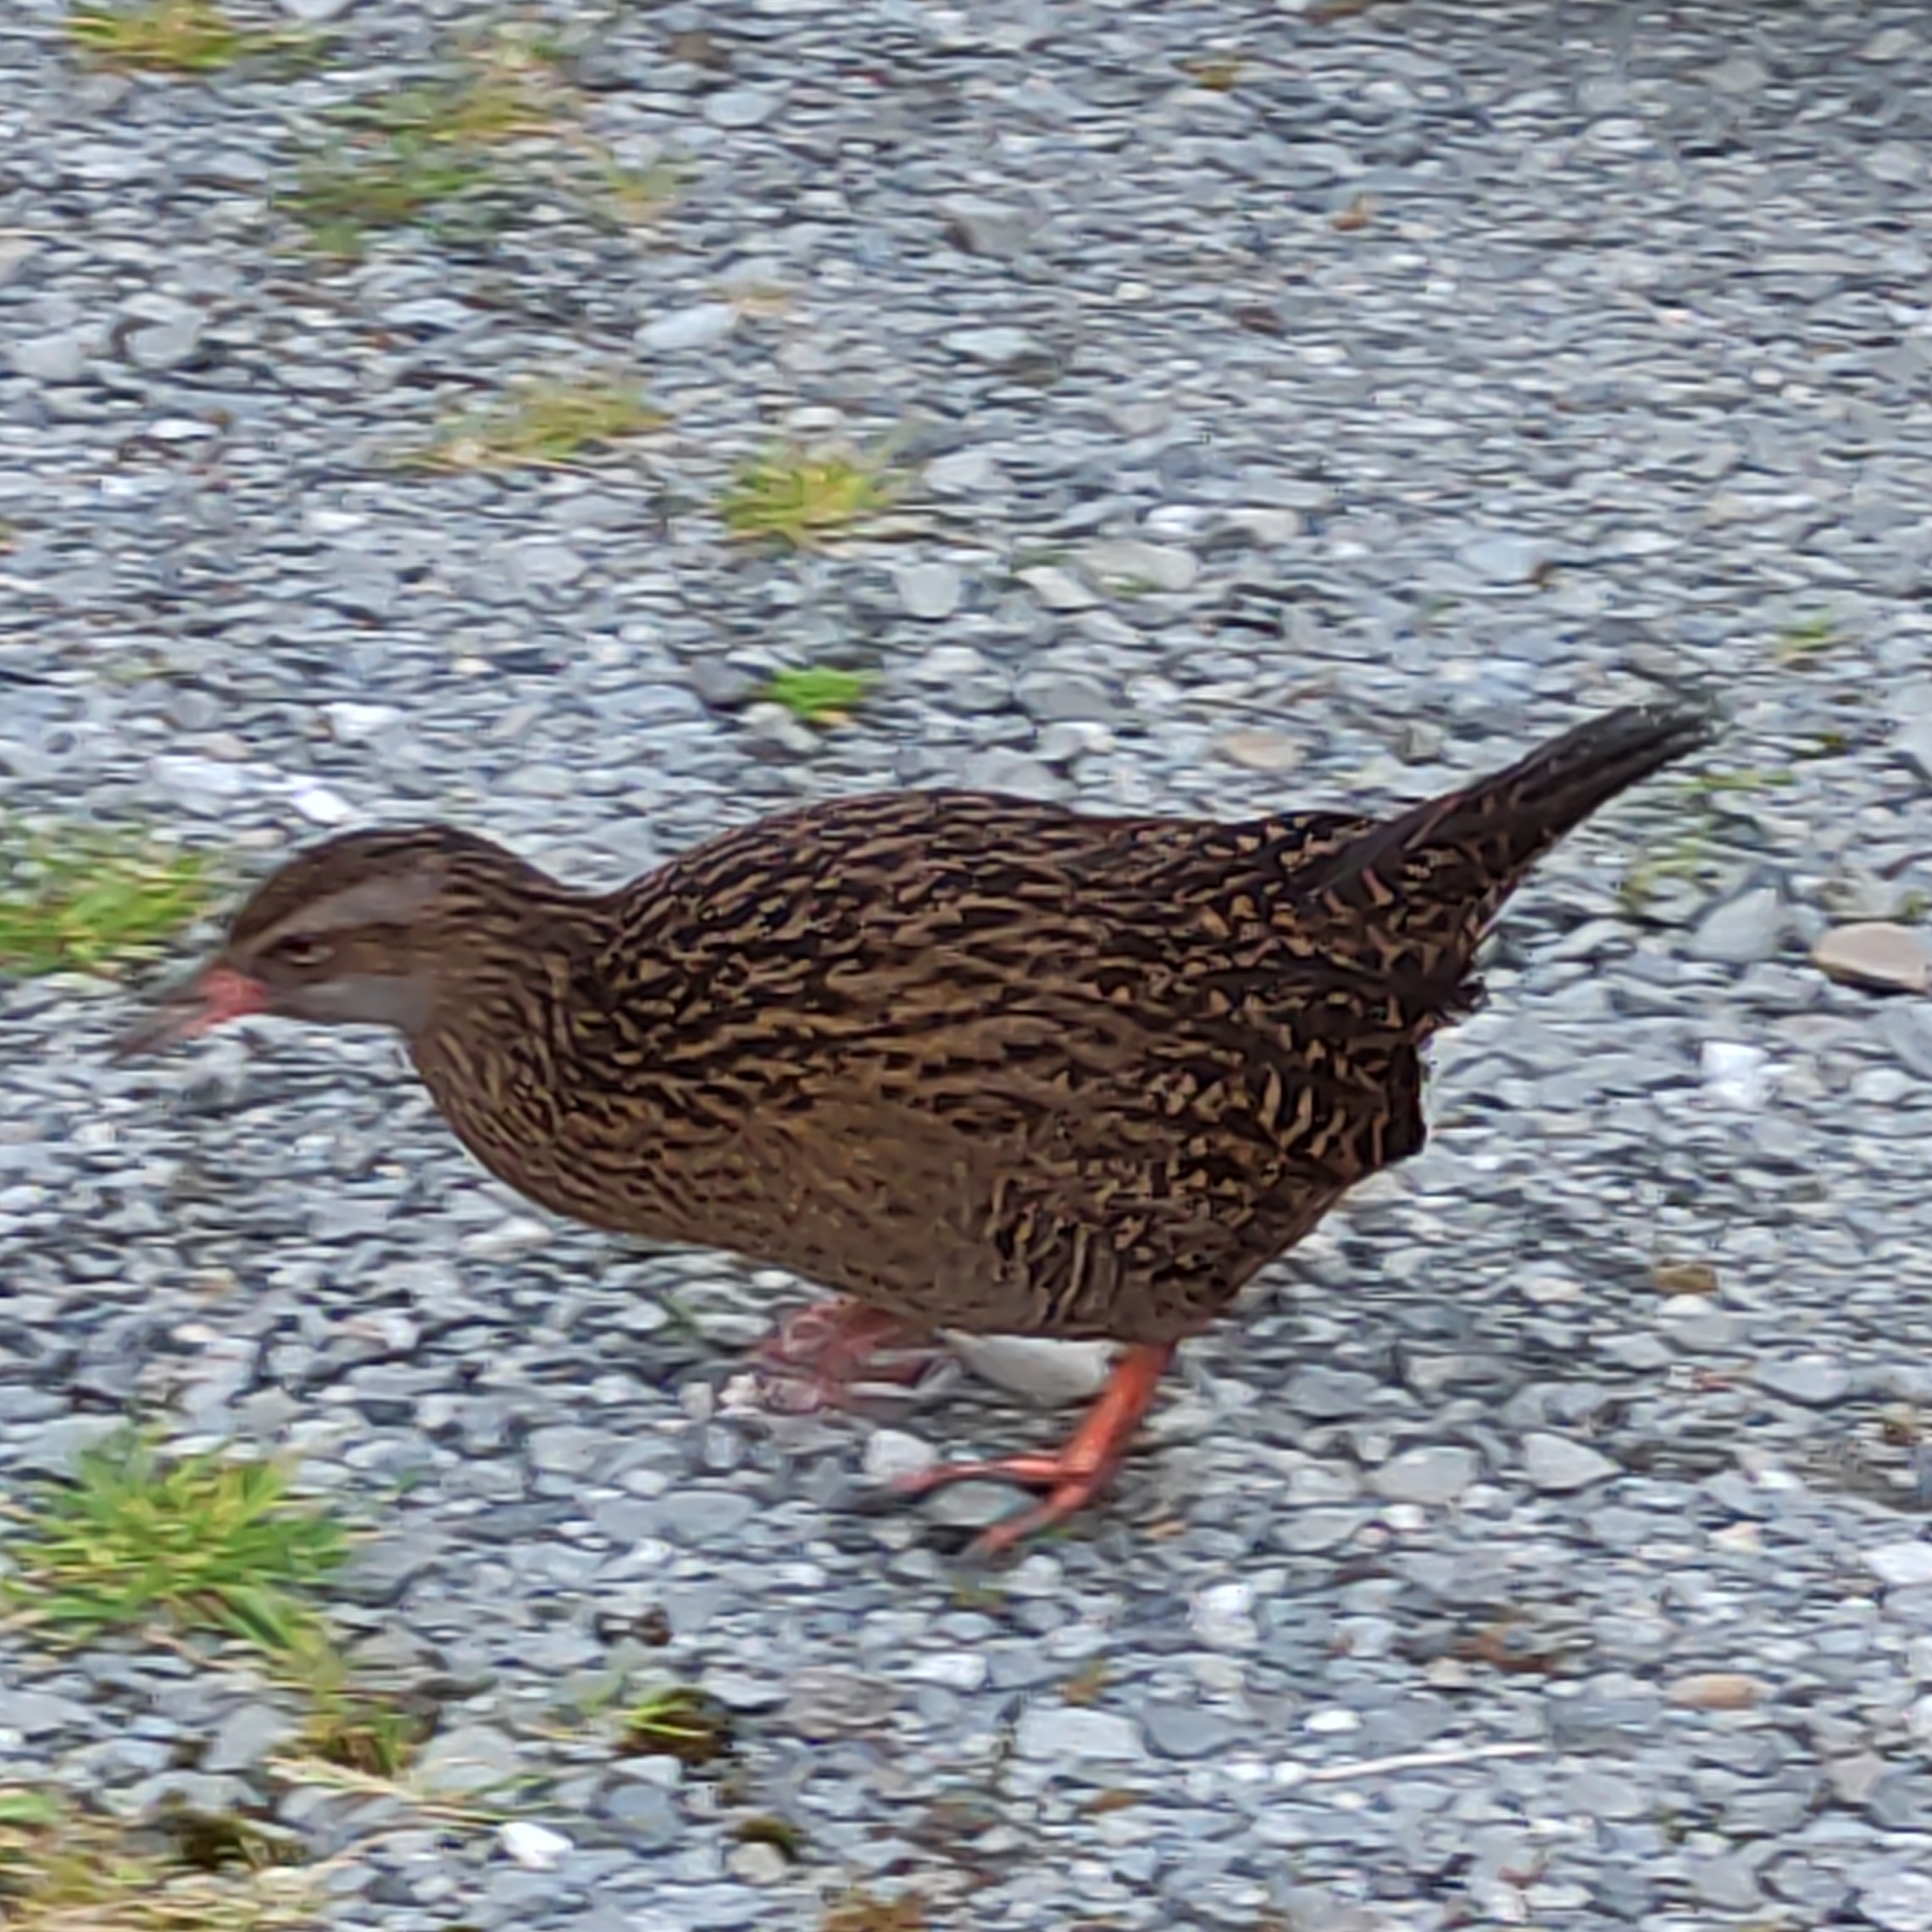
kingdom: Animalia
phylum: Chordata
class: Aves
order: Gruiformes
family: Rallidae
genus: Gallirallus
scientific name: Gallirallus australis
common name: Weka
